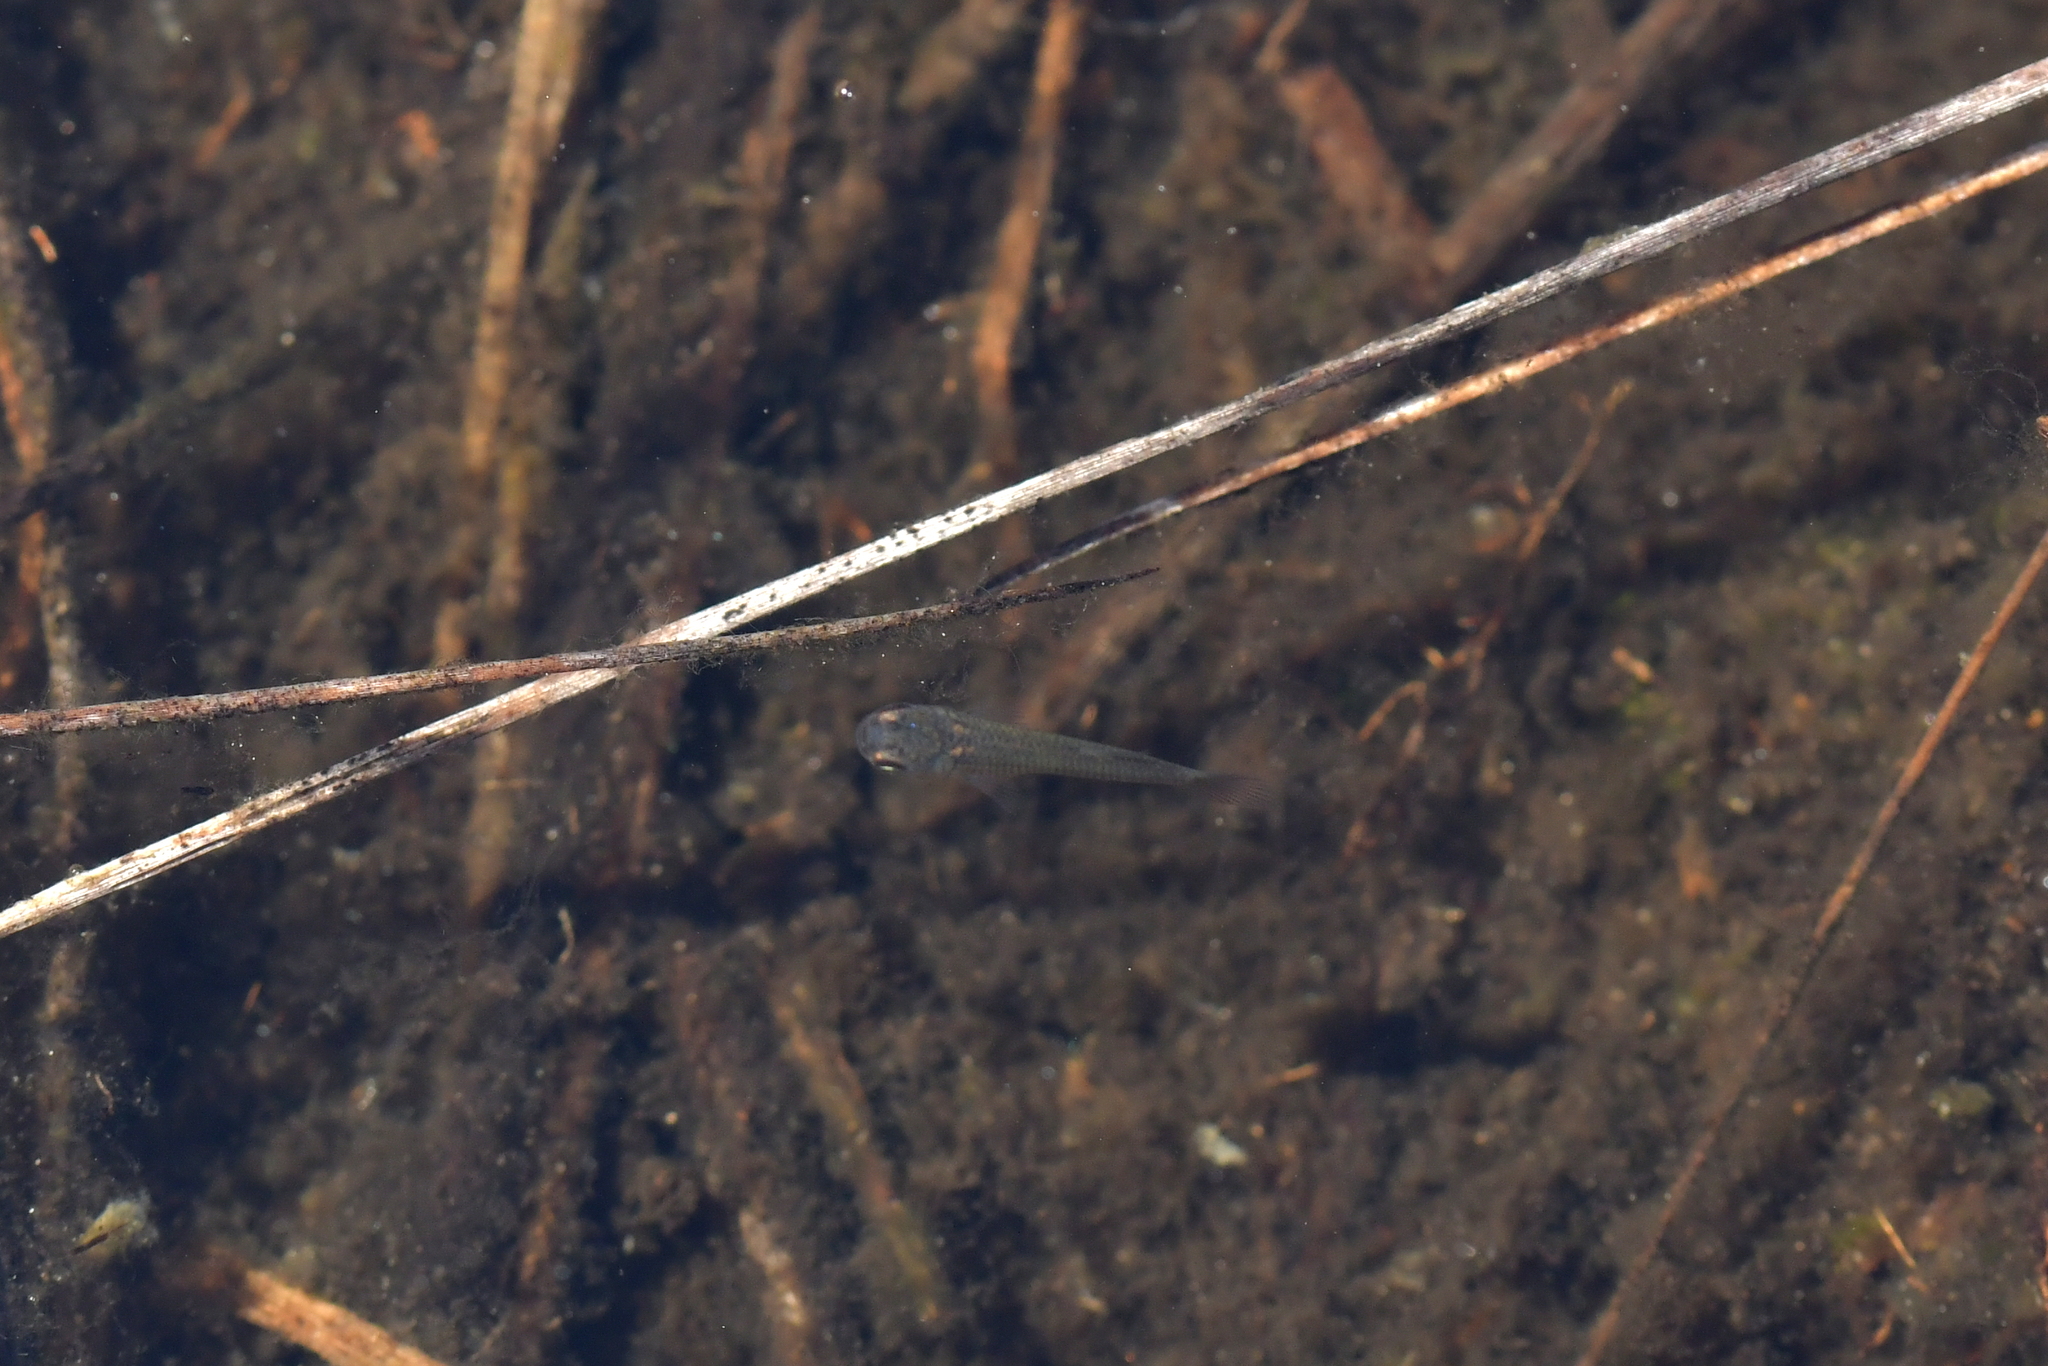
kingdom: Animalia
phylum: Chordata
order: Cyprinodontiformes
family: Poeciliidae
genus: Gambusia
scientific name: Gambusia affinis
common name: Mosquitofish
